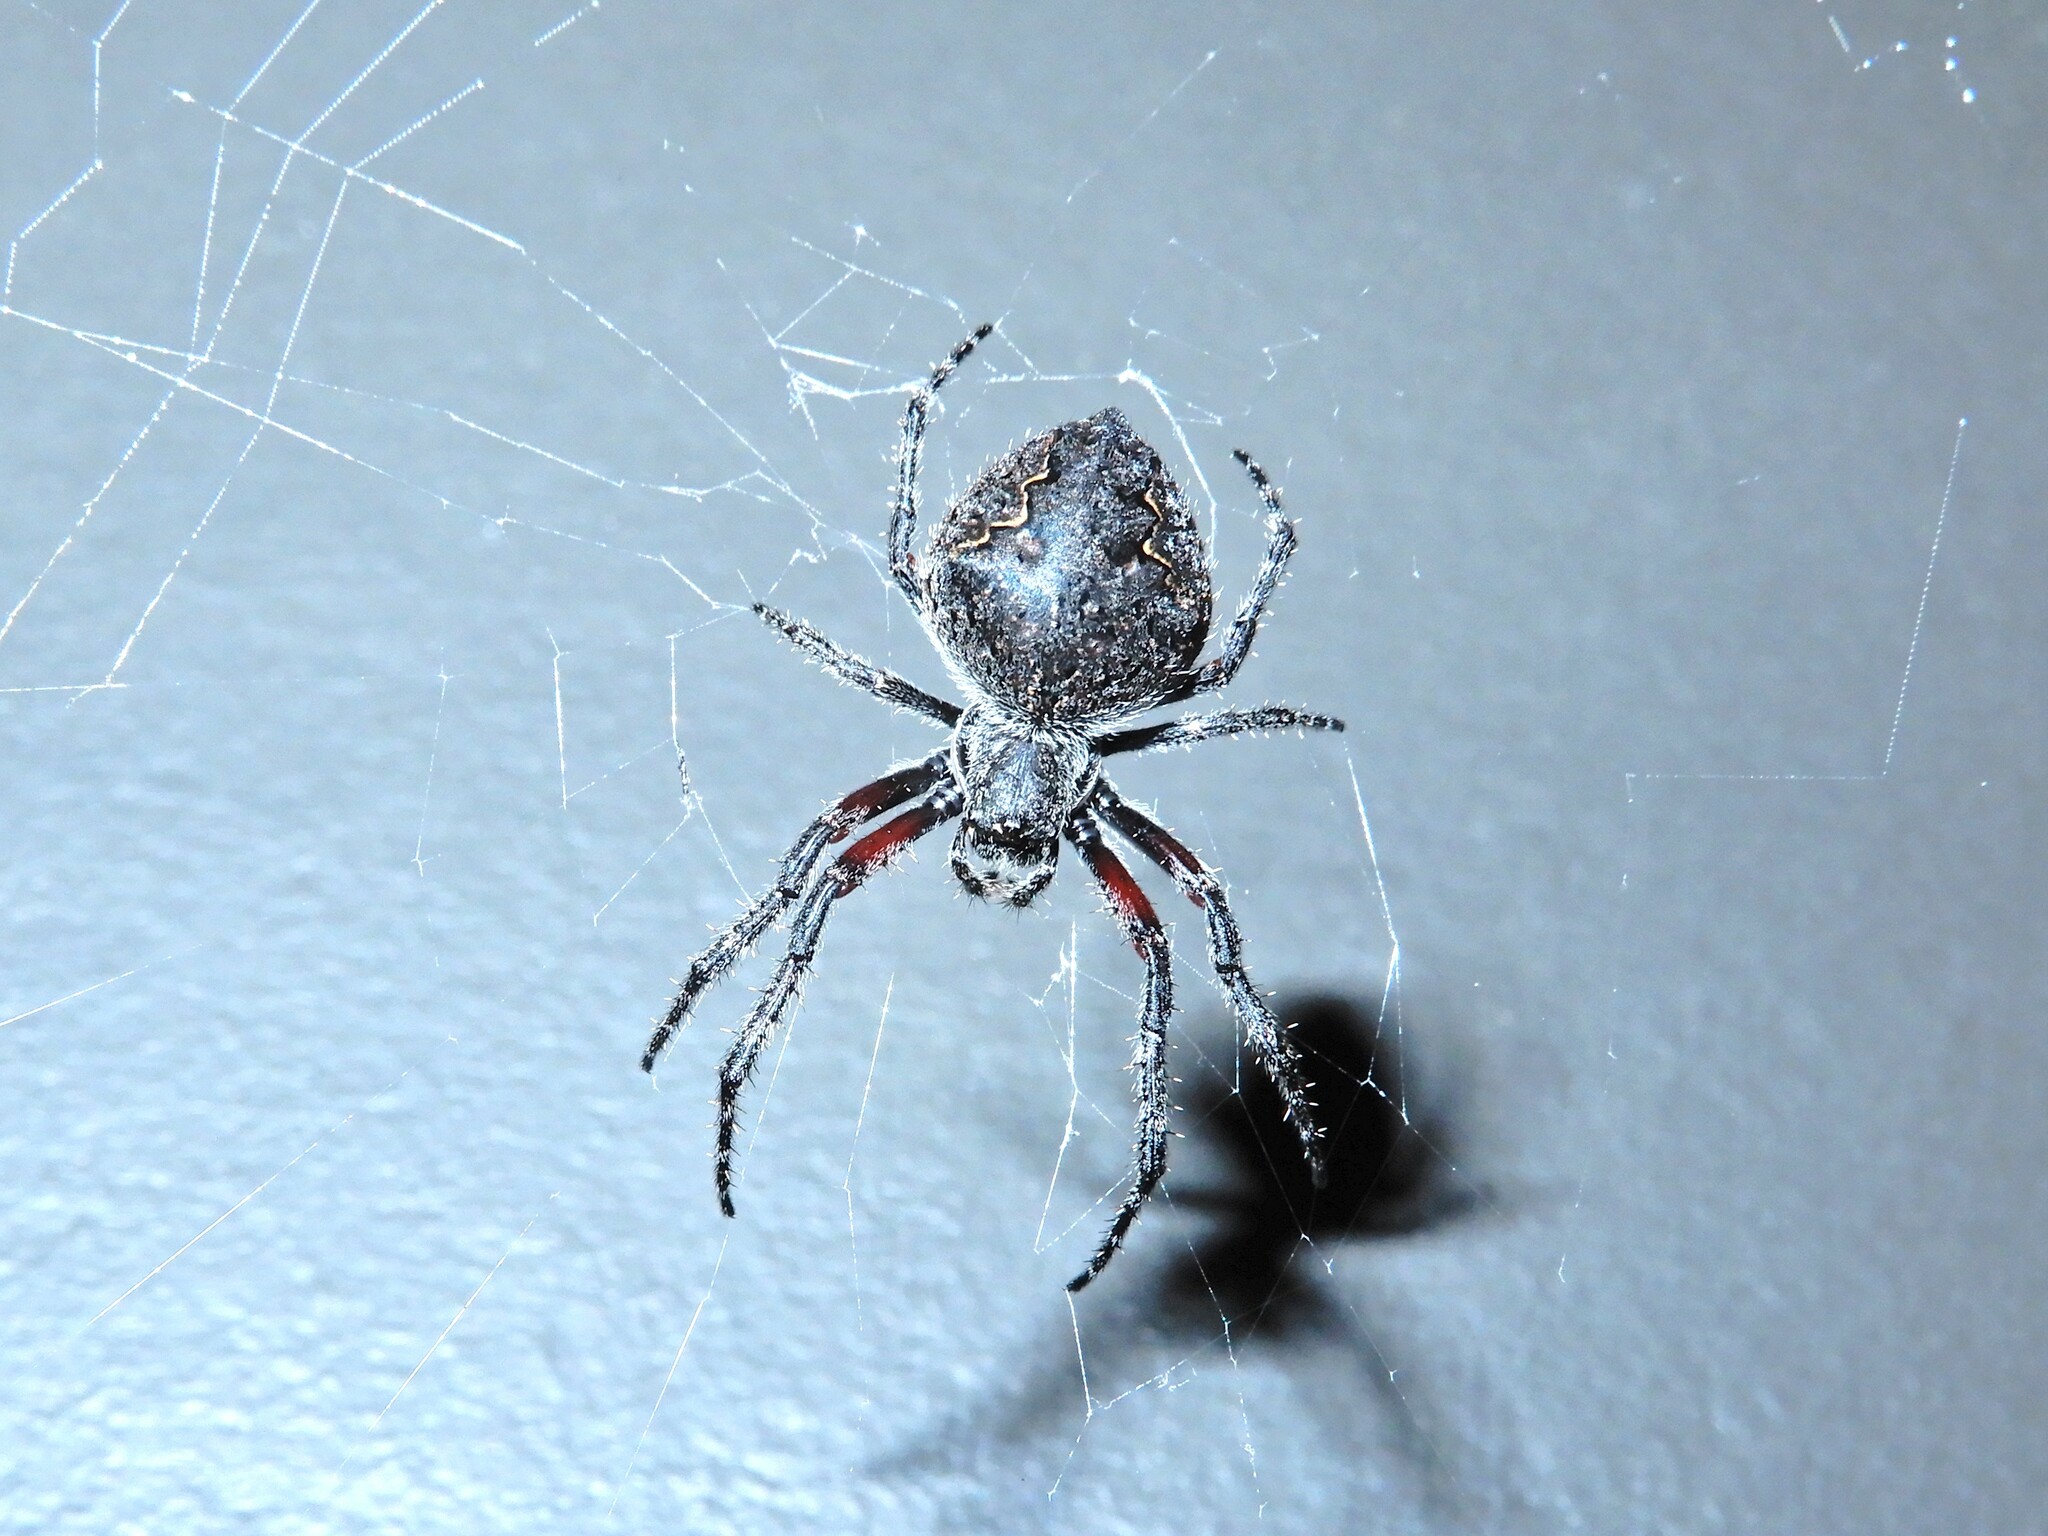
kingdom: Animalia
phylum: Arthropoda
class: Arachnida
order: Araneae
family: Araneidae
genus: Eriophora
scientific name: Eriophora pustulosa
